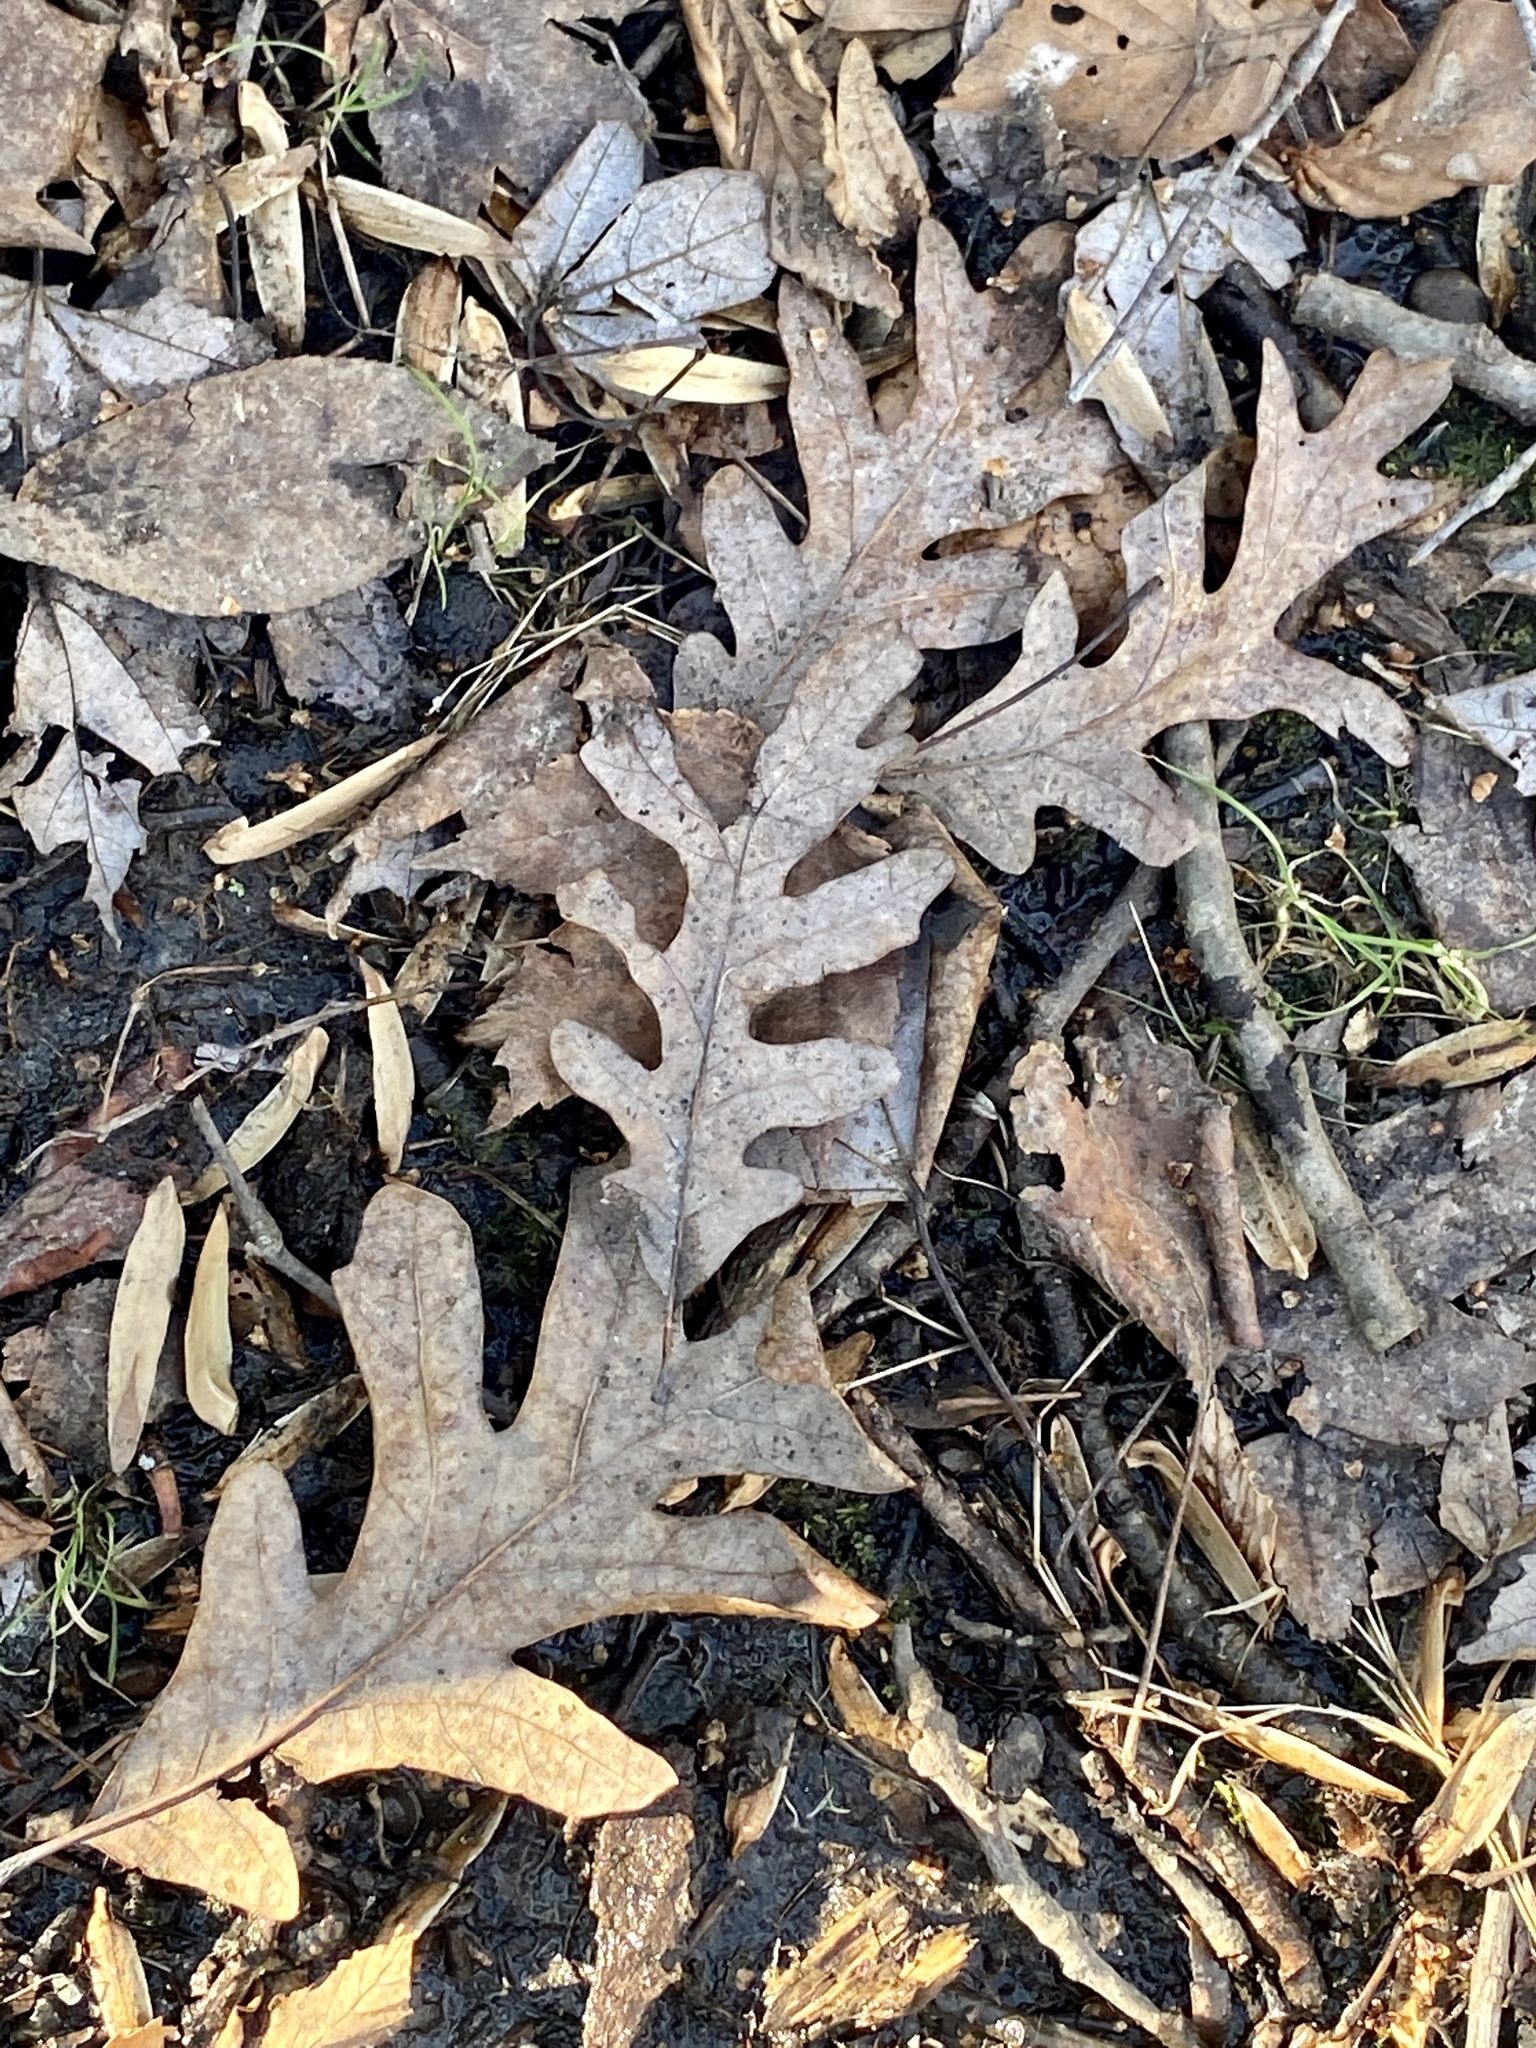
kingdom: Plantae
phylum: Tracheophyta
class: Magnoliopsida
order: Fagales
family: Fagaceae
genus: Quercus
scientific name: Quercus alba
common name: White oak
